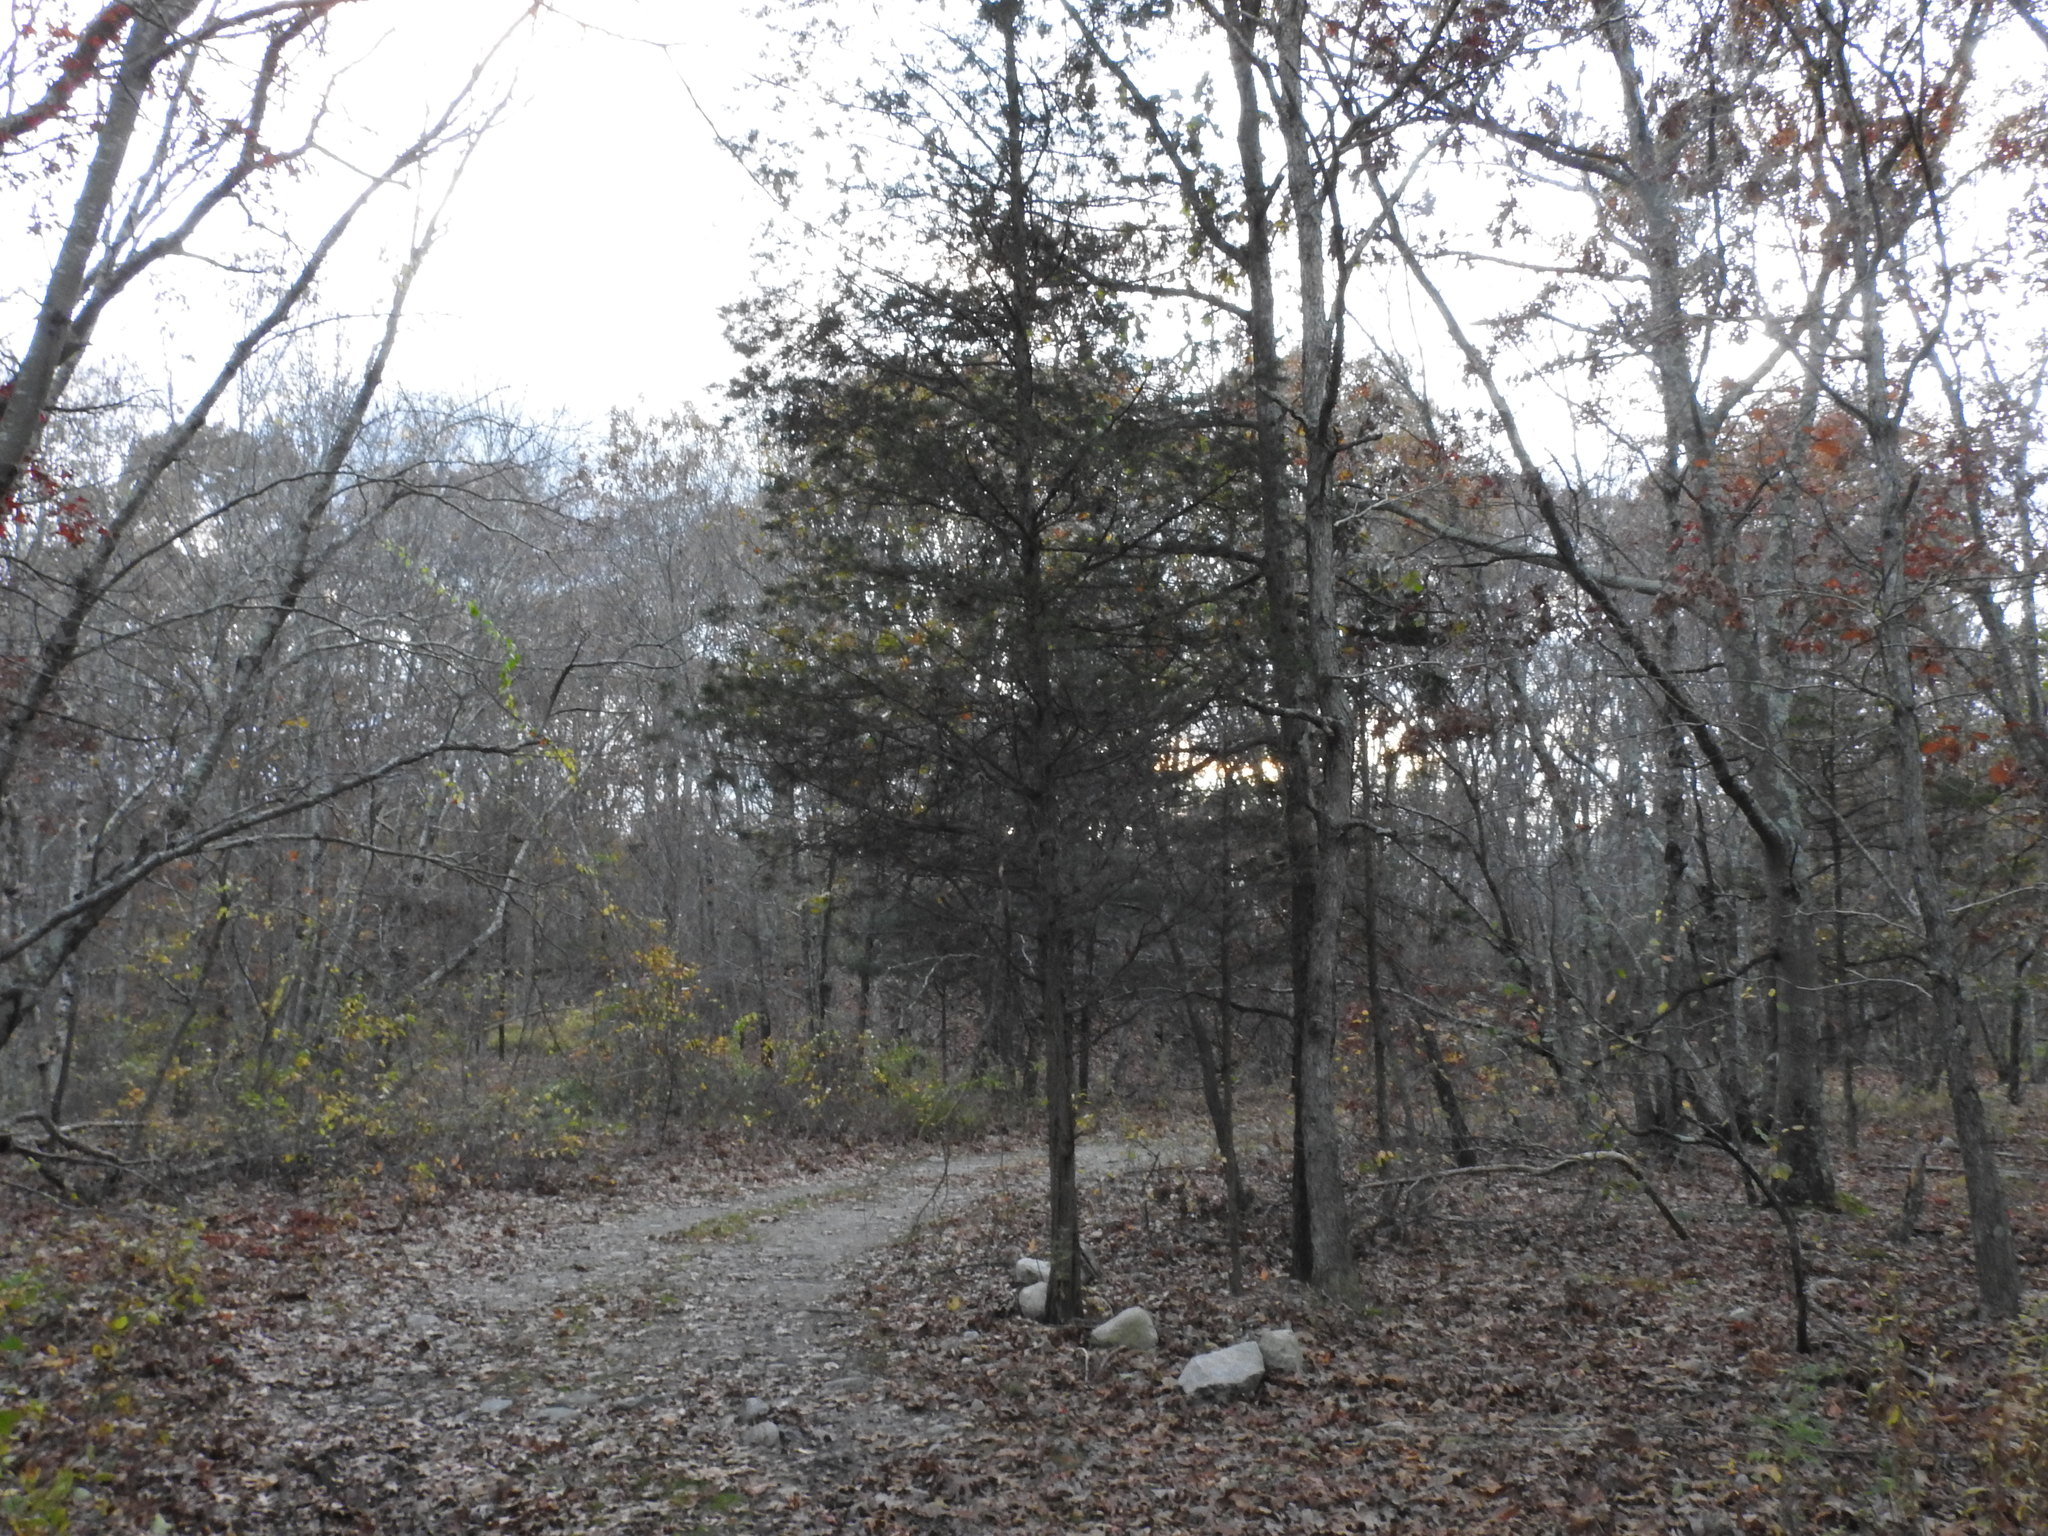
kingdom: Plantae
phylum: Tracheophyta
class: Pinopsida
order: Pinales
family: Cupressaceae
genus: Juniperus
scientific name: Juniperus virginiana
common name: Red juniper
